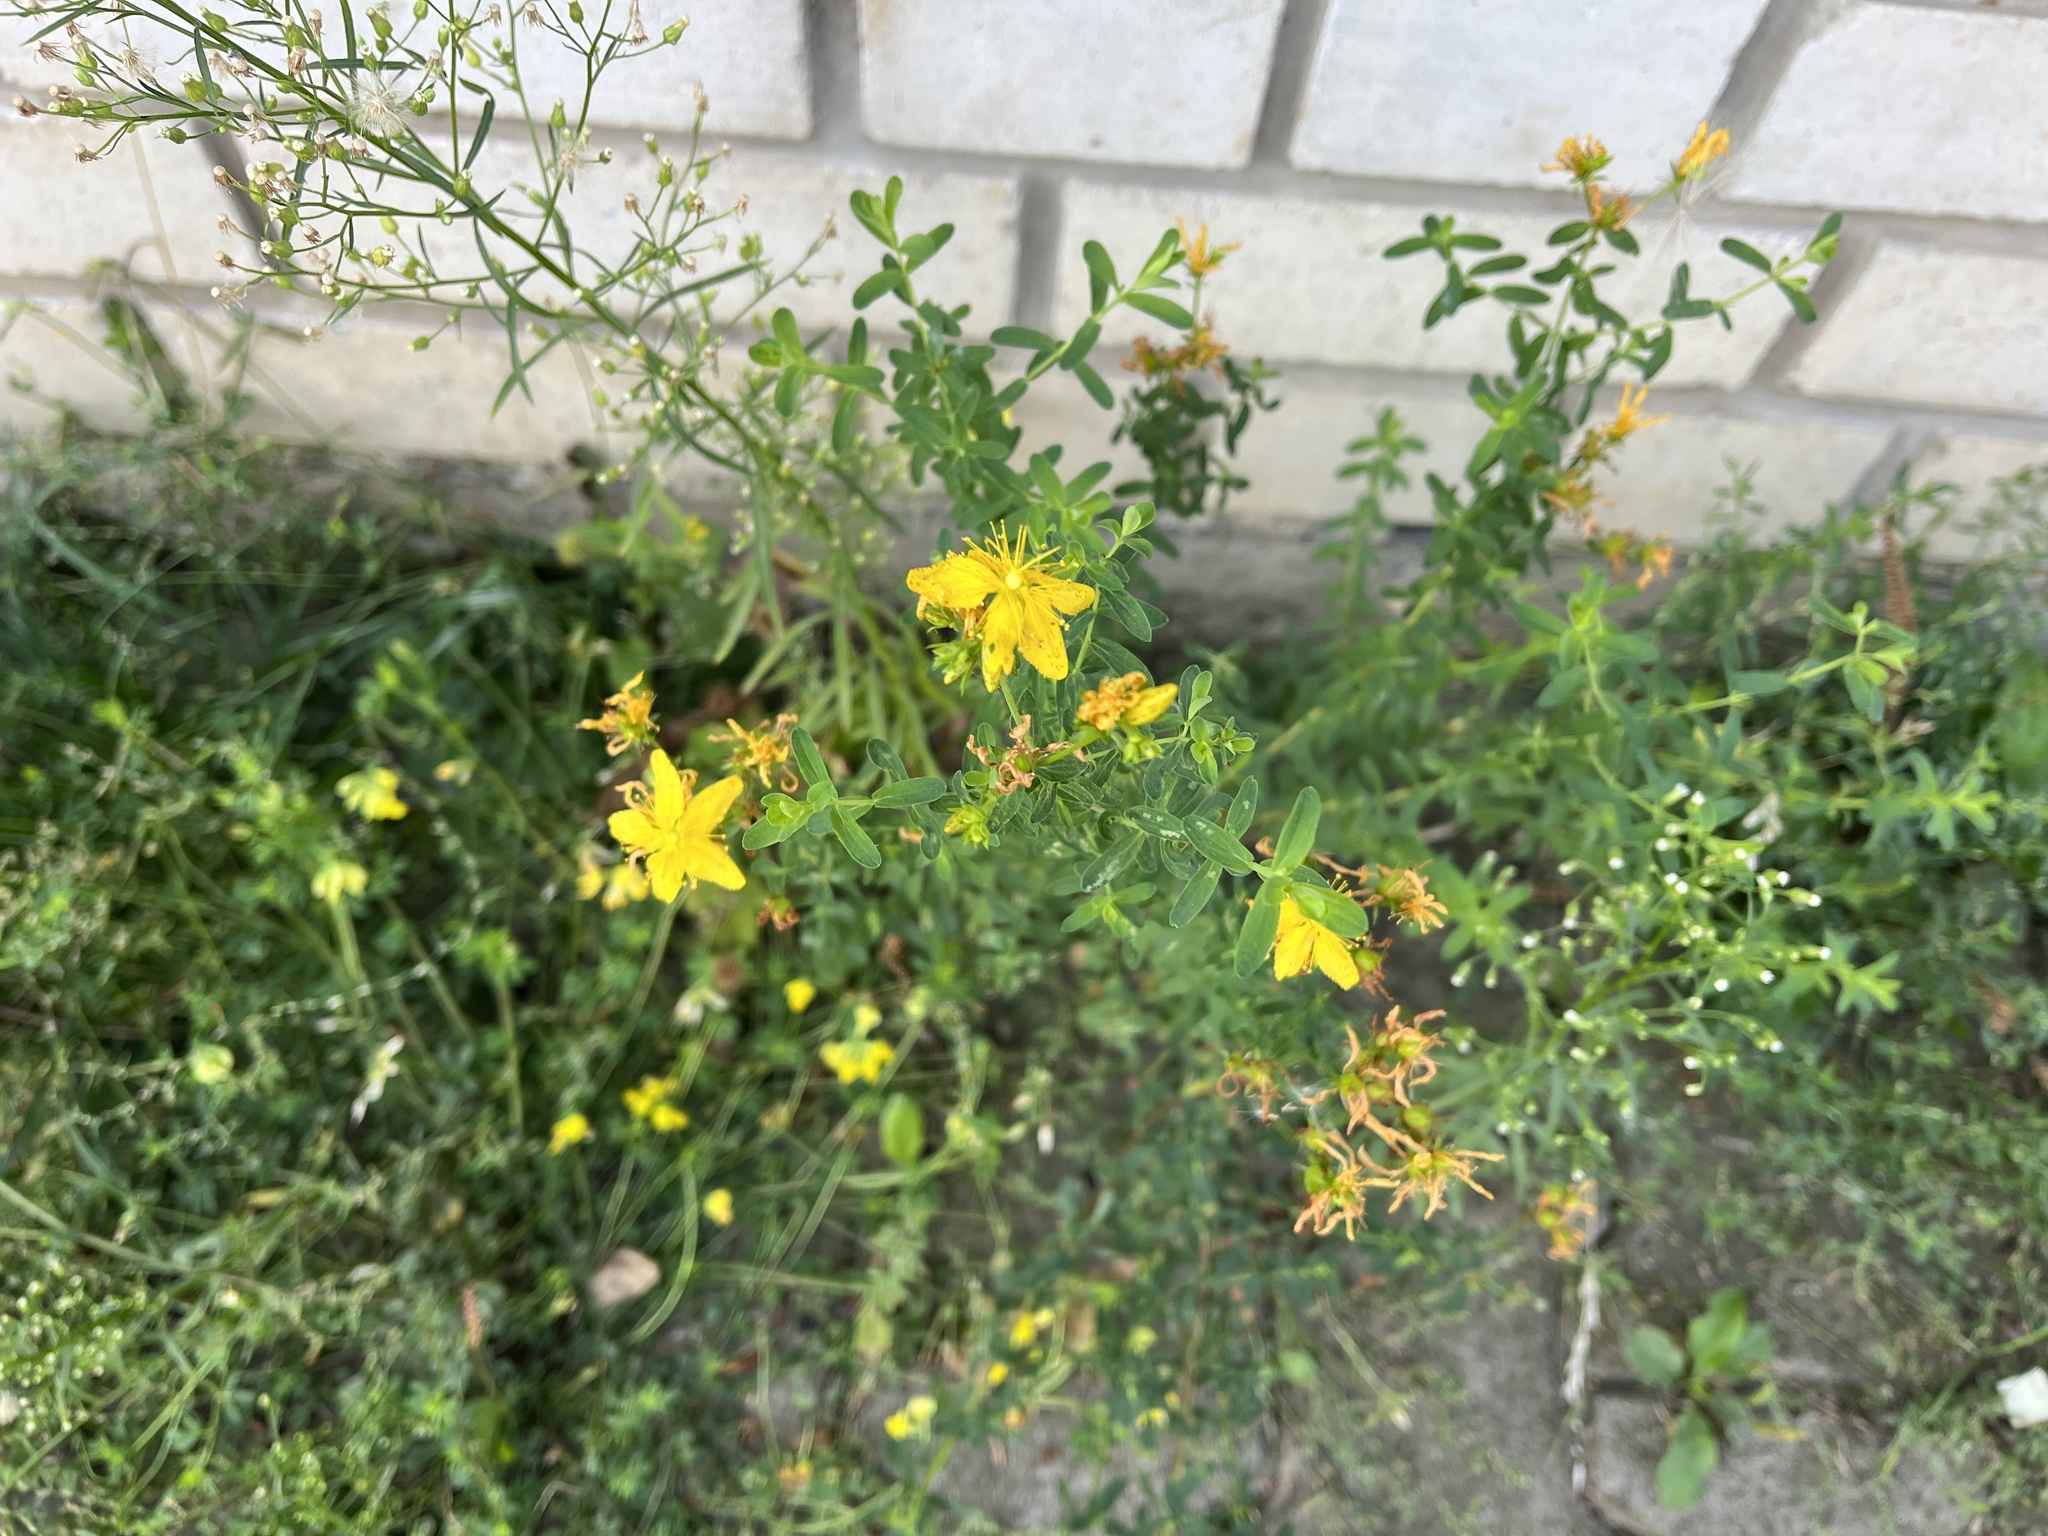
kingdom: Plantae
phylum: Tracheophyta
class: Magnoliopsida
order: Malpighiales
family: Hypericaceae
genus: Hypericum
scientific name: Hypericum perforatum
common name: Common st. johnswort
